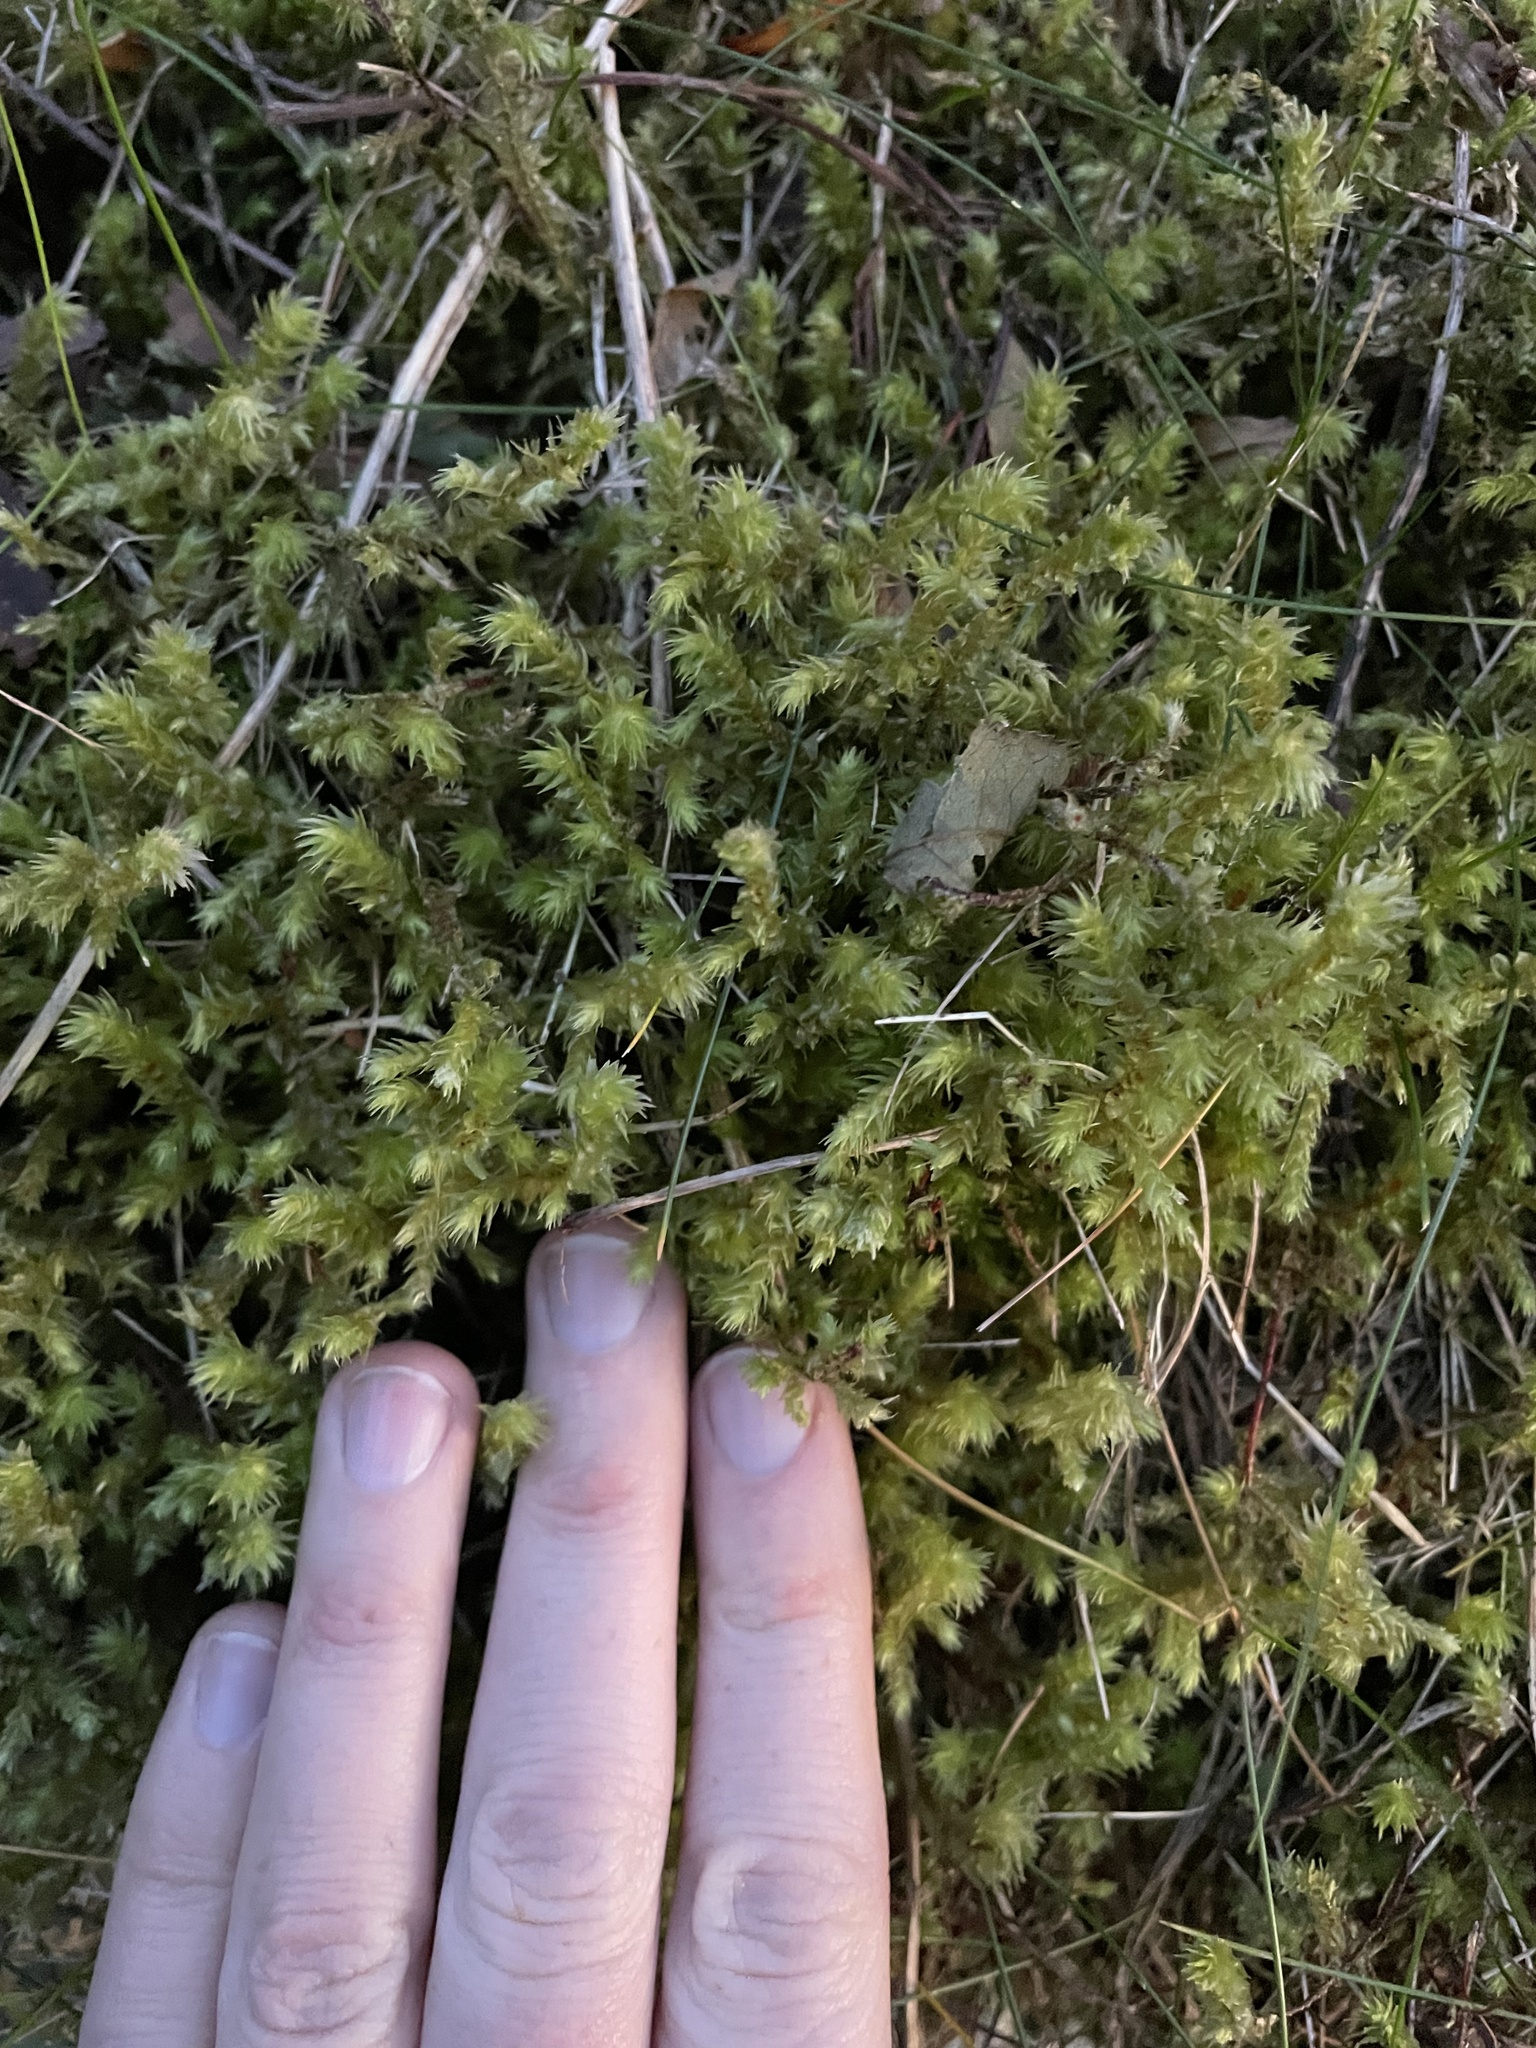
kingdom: Plantae
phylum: Bryophyta
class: Bryopsida
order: Hypnales
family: Hylocomiaceae
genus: Hylocomiadelphus
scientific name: Hylocomiadelphus triquetrus
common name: Rough goose neck moss
